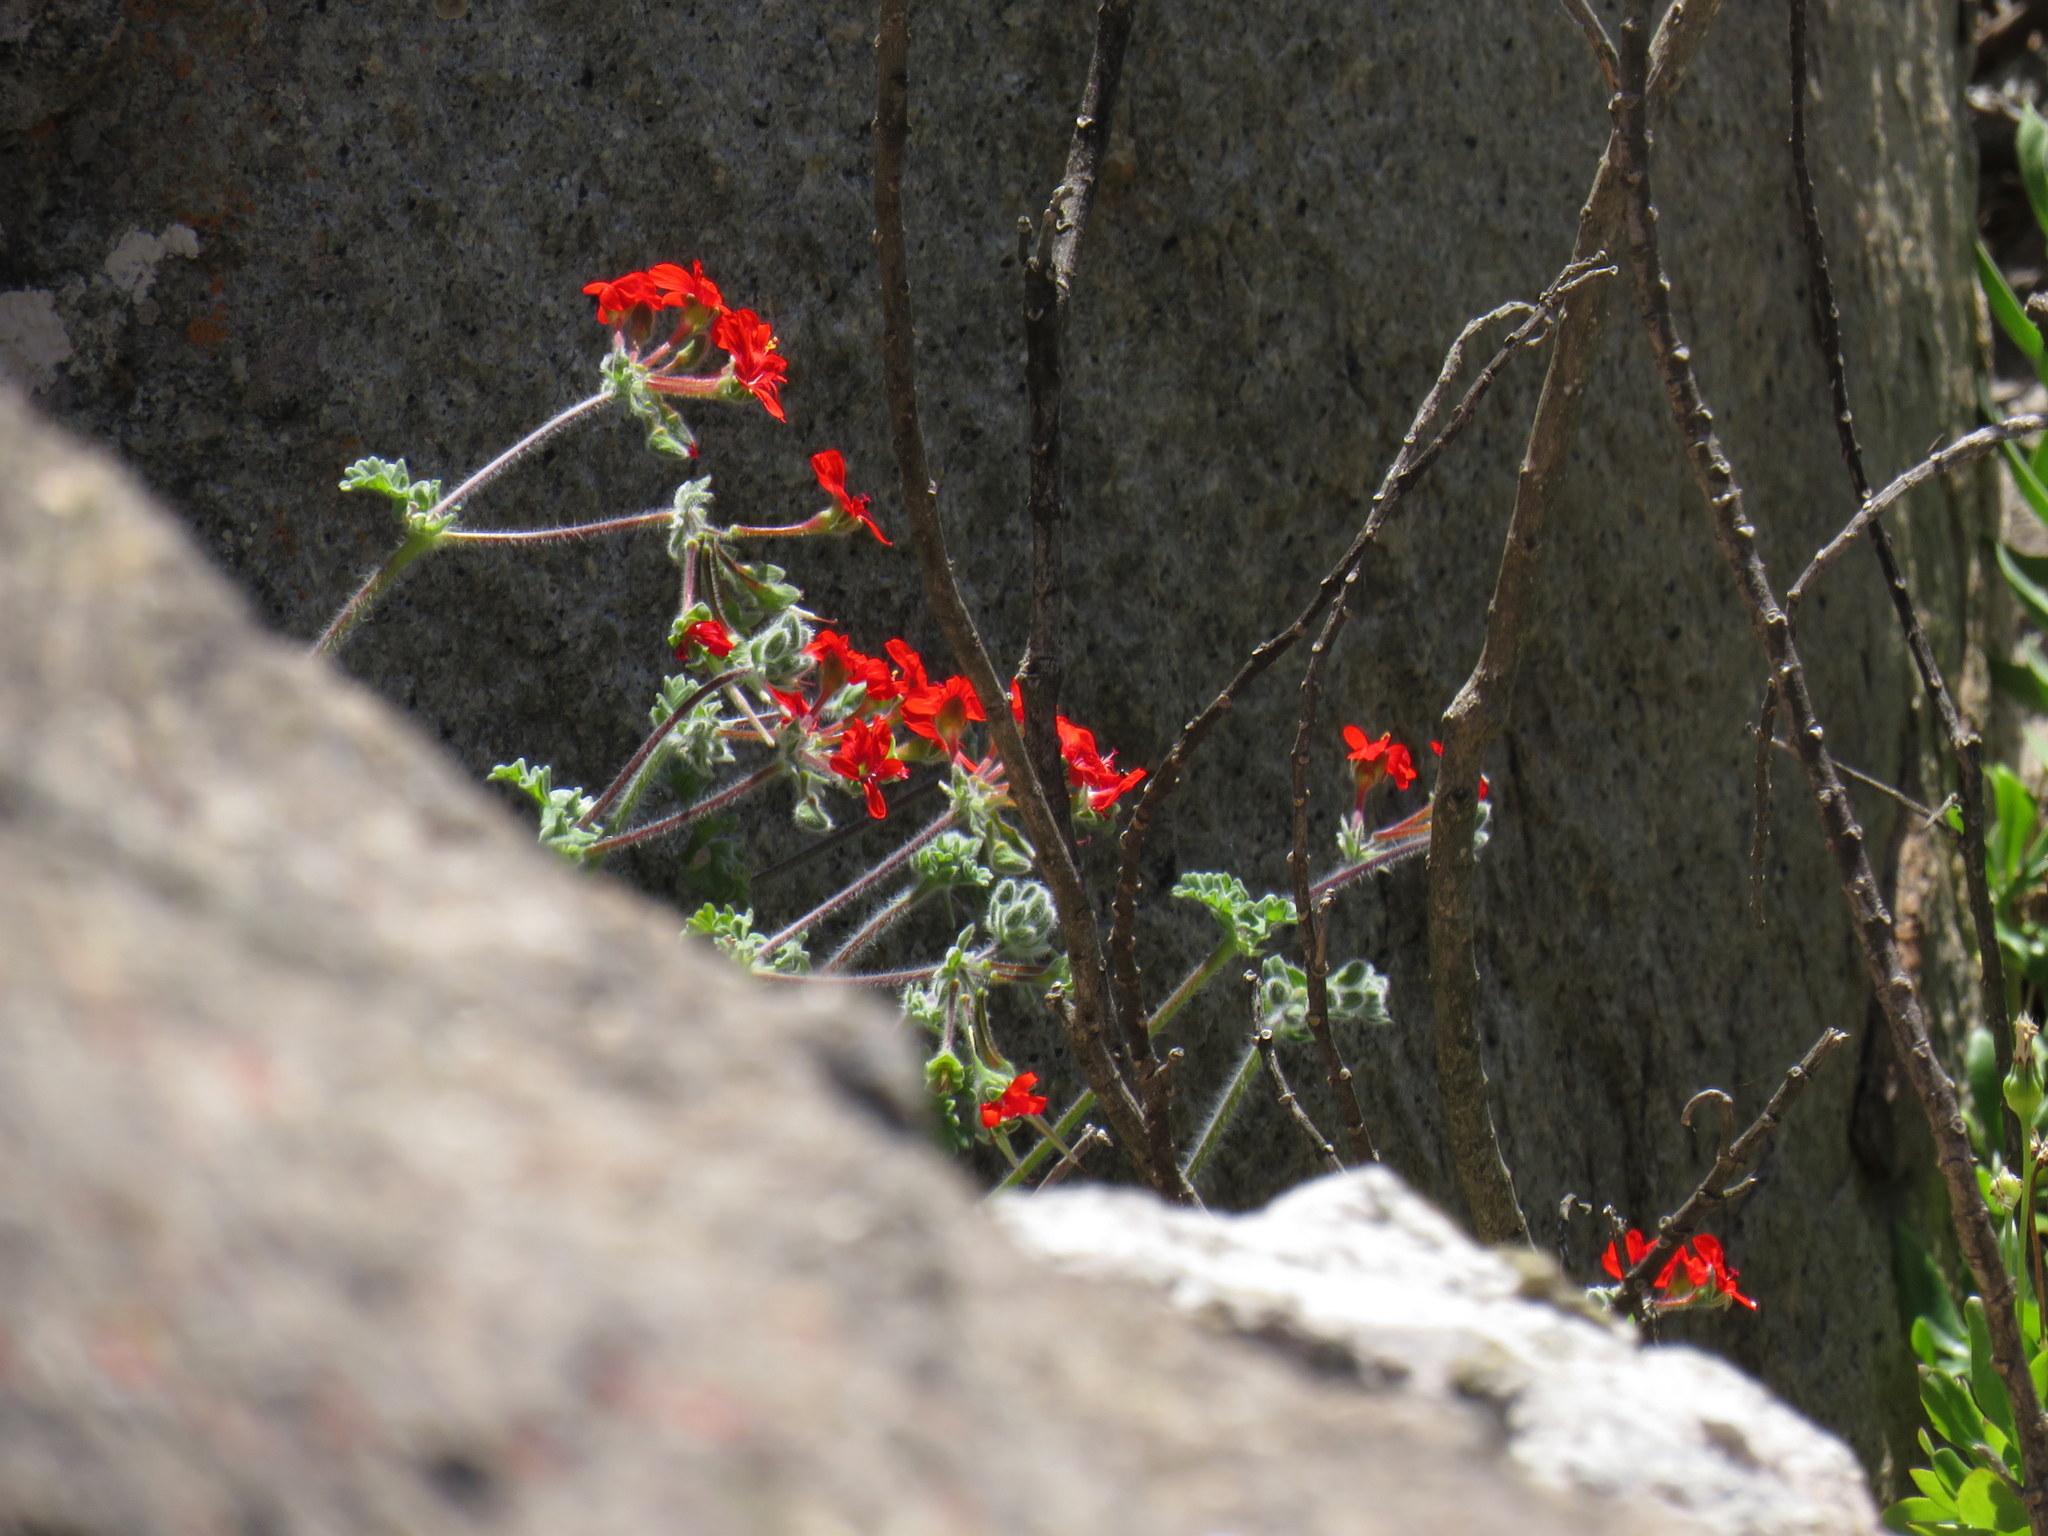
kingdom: Plantae
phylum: Tracheophyta
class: Magnoliopsida
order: Geraniales
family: Geraniaceae
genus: Pelargonium
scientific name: Pelargonium fulgidum
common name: Celandine-leaf pelargonium
